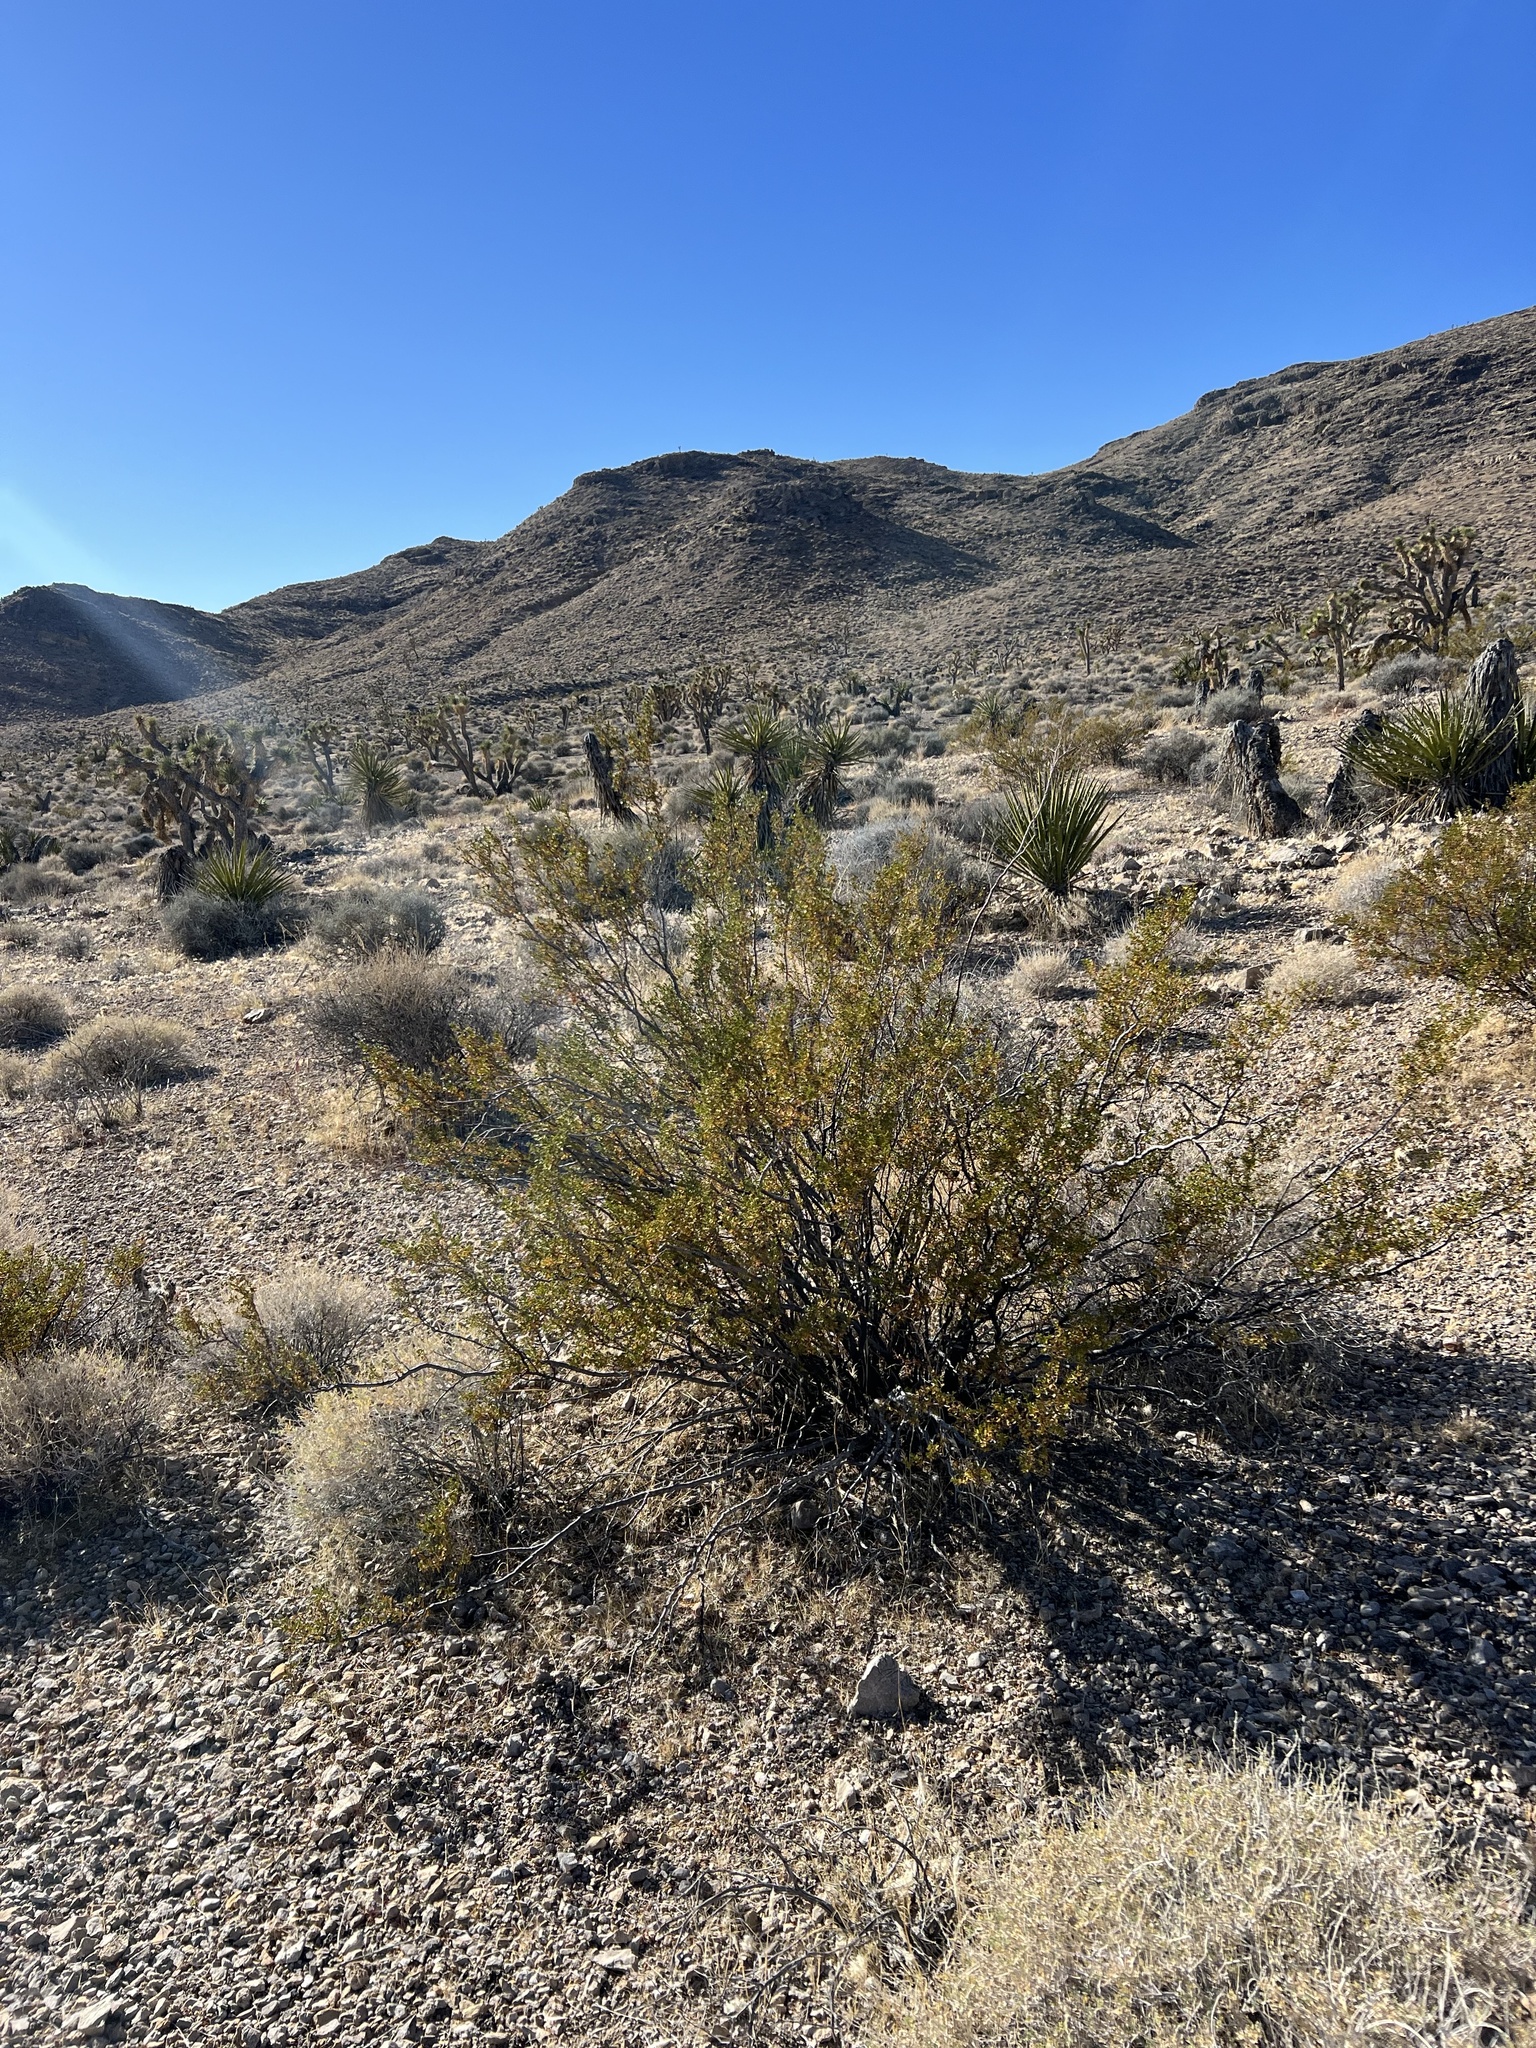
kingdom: Plantae
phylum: Tracheophyta
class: Magnoliopsida
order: Zygophyllales
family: Zygophyllaceae
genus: Larrea
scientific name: Larrea tridentata
